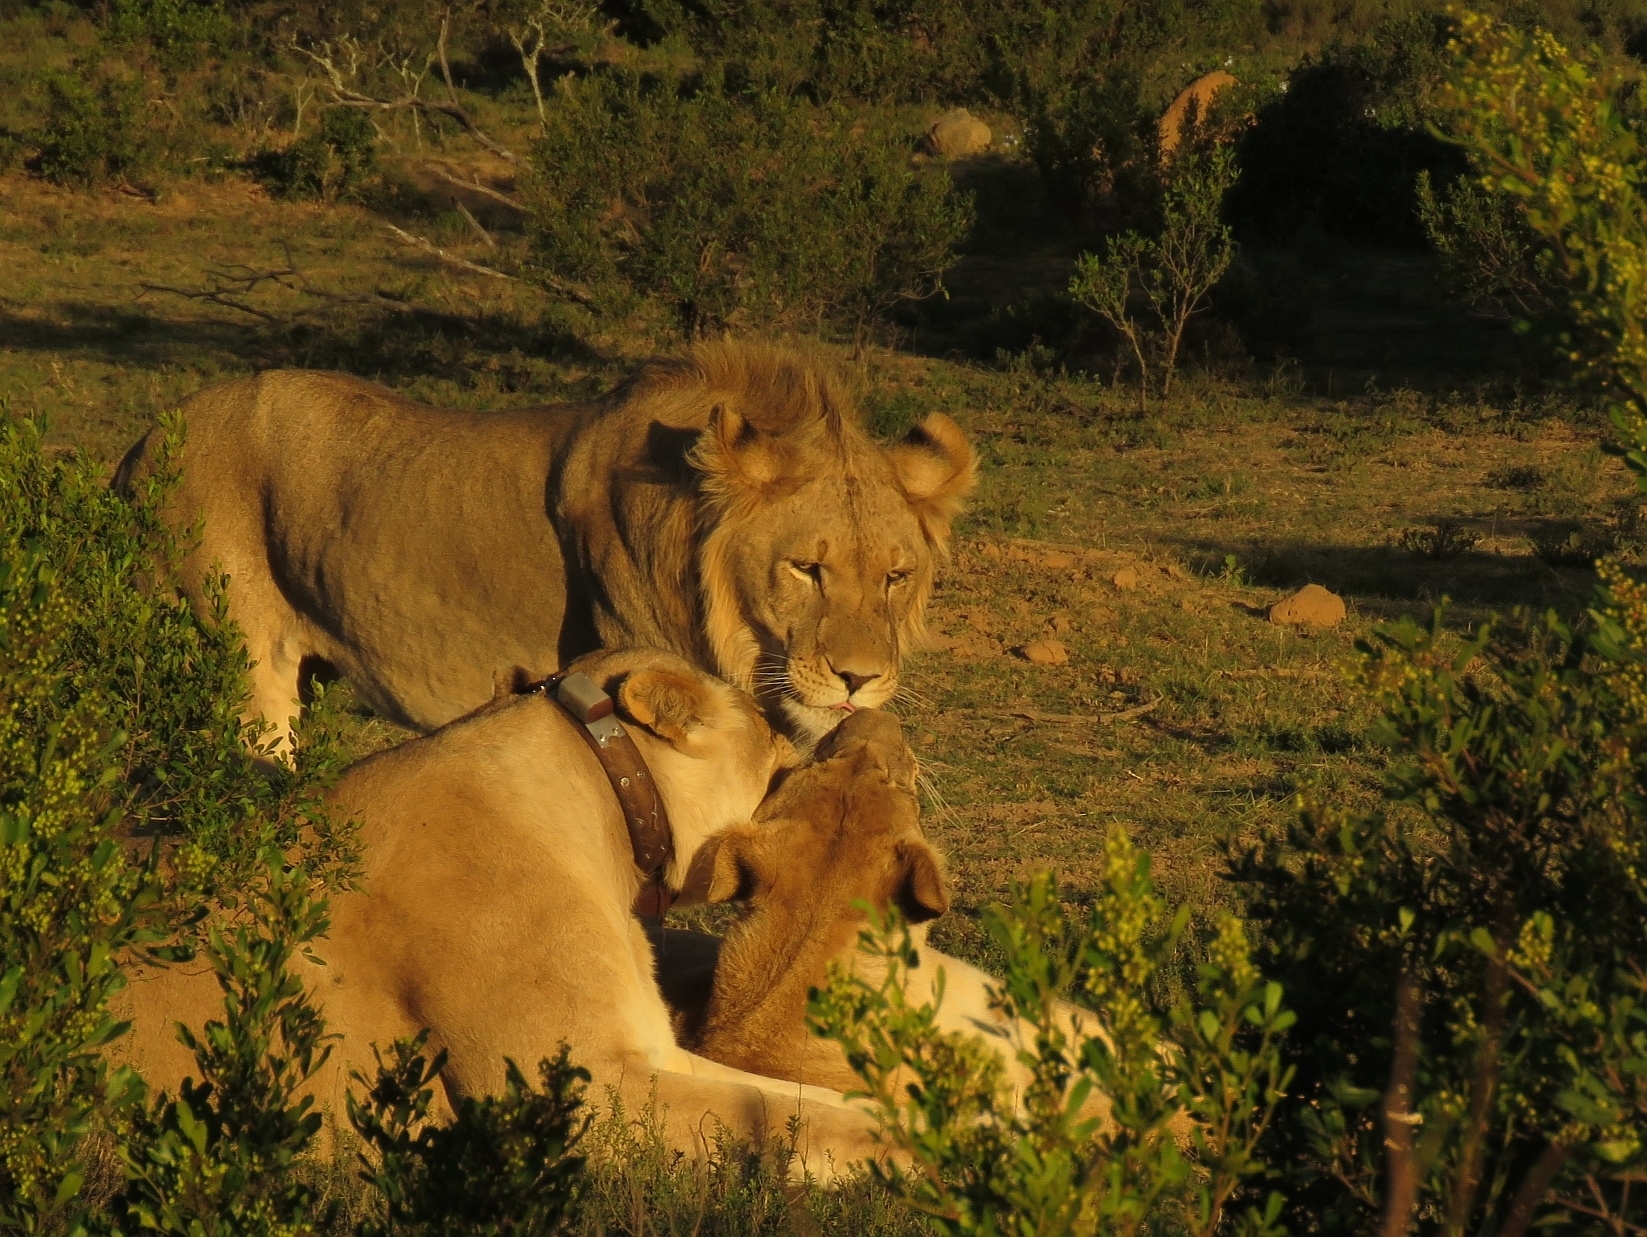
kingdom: Animalia
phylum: Chordata
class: Mammalia
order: Carnivora
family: Felidae
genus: Panthera
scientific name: Panthera leo
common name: Lion
